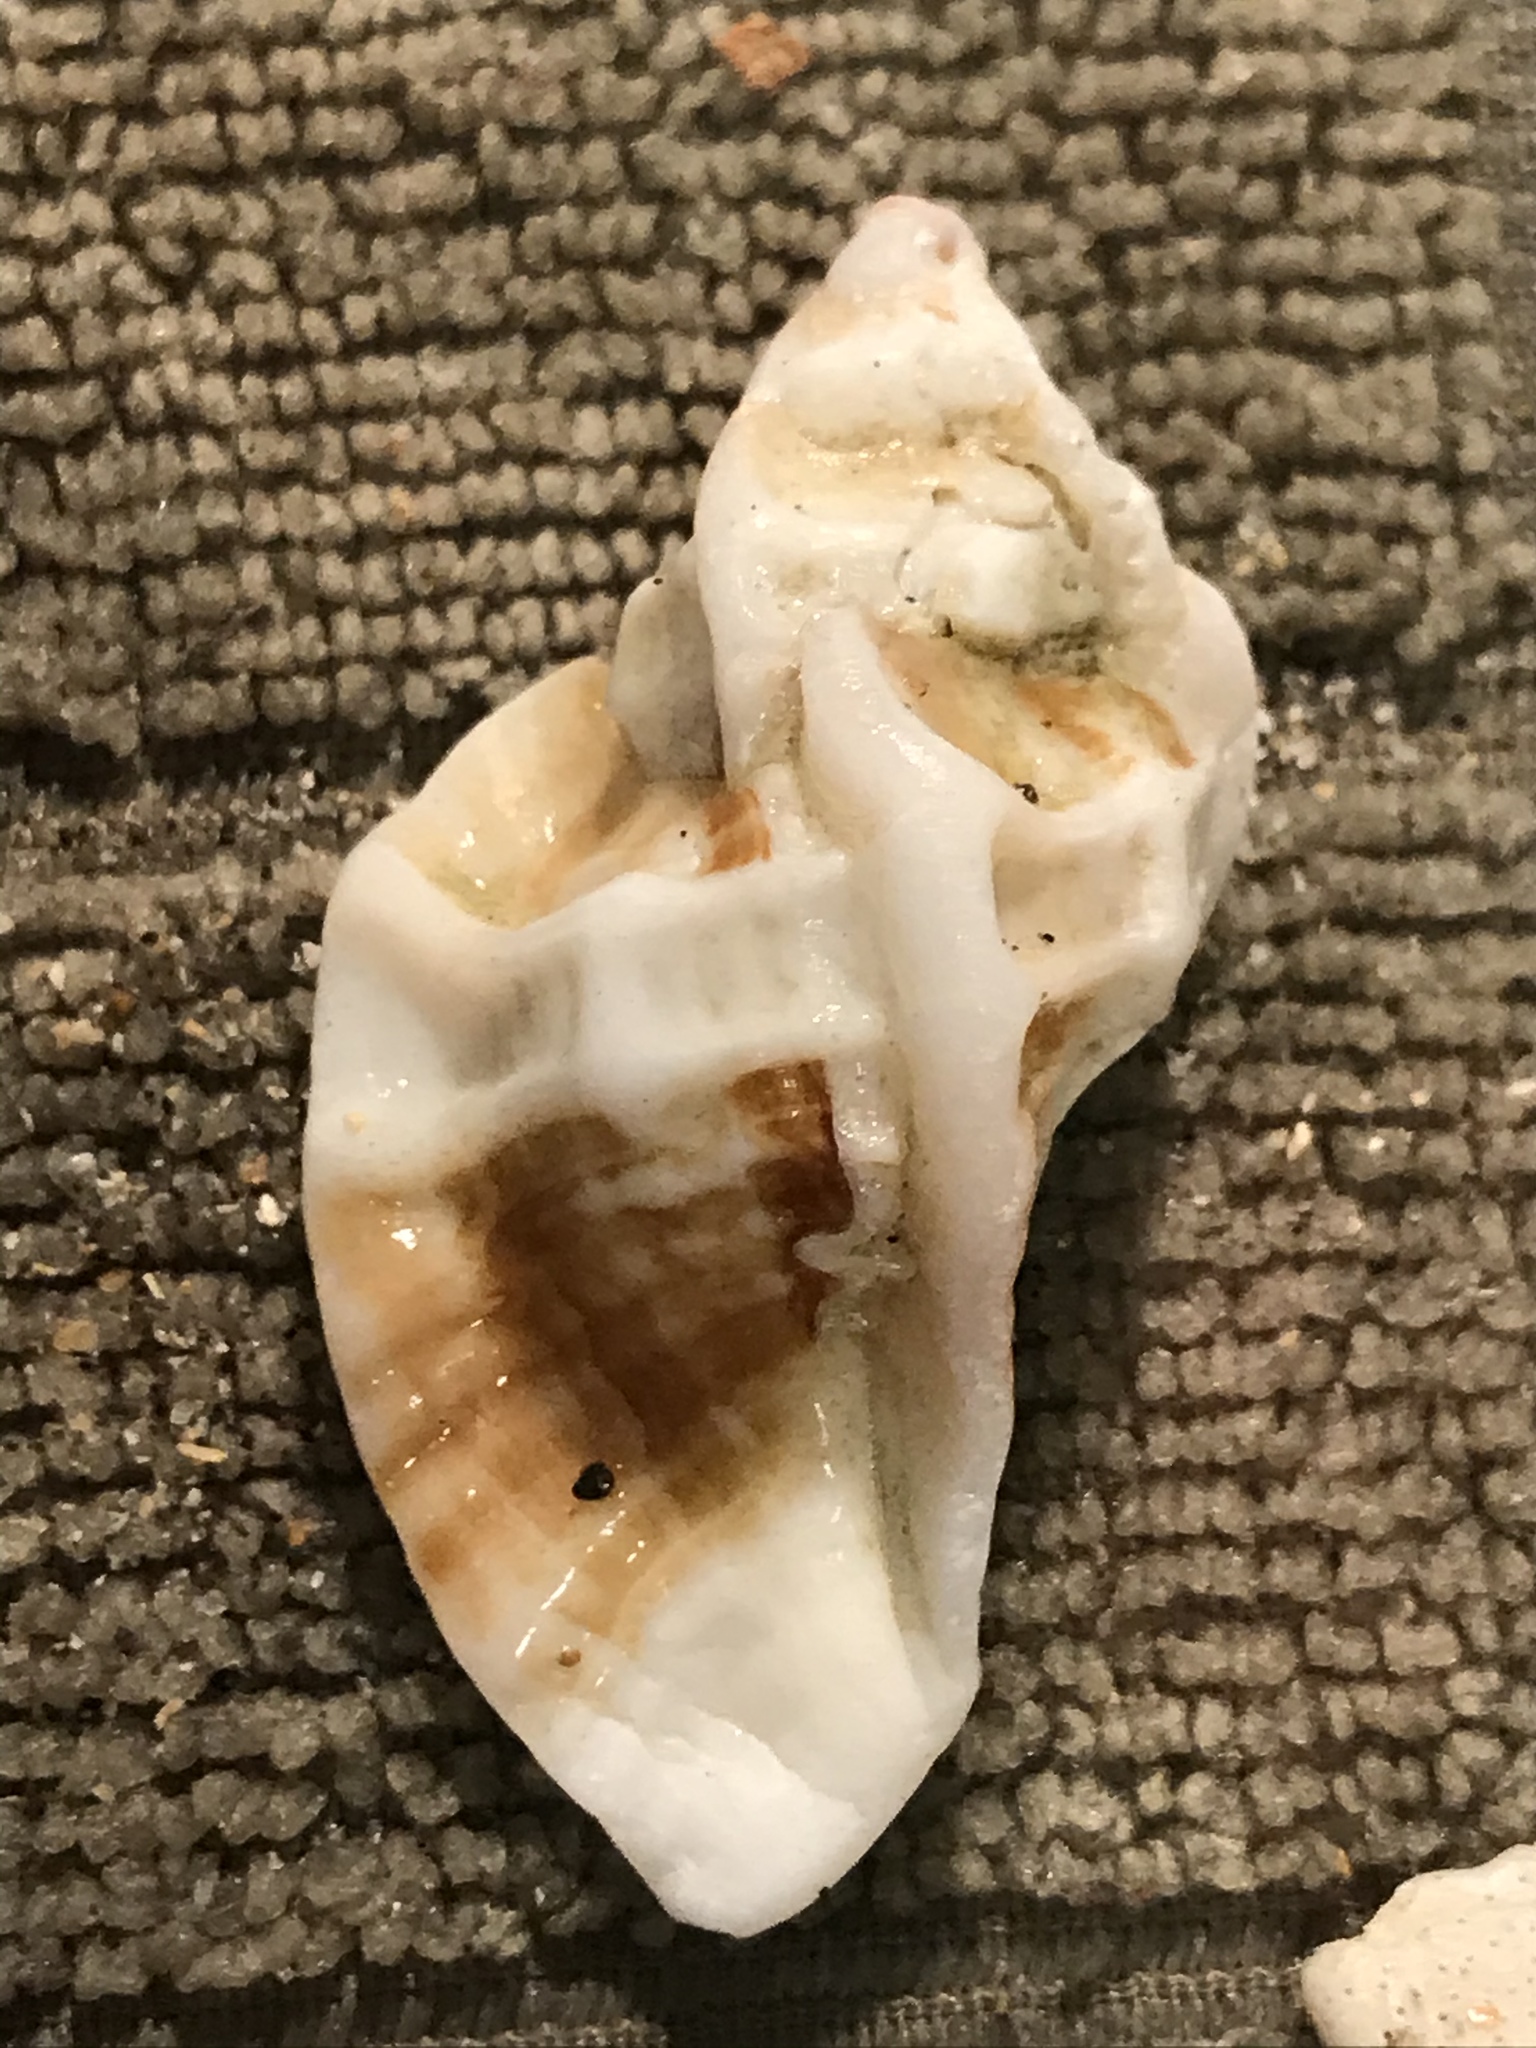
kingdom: Animalia
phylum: Mollusca
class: Gastropoda
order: Neogastropoda
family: Muricidae
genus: Ceratostoma
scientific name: Ceratostoma foliatum
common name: Foliate thorn purpura
